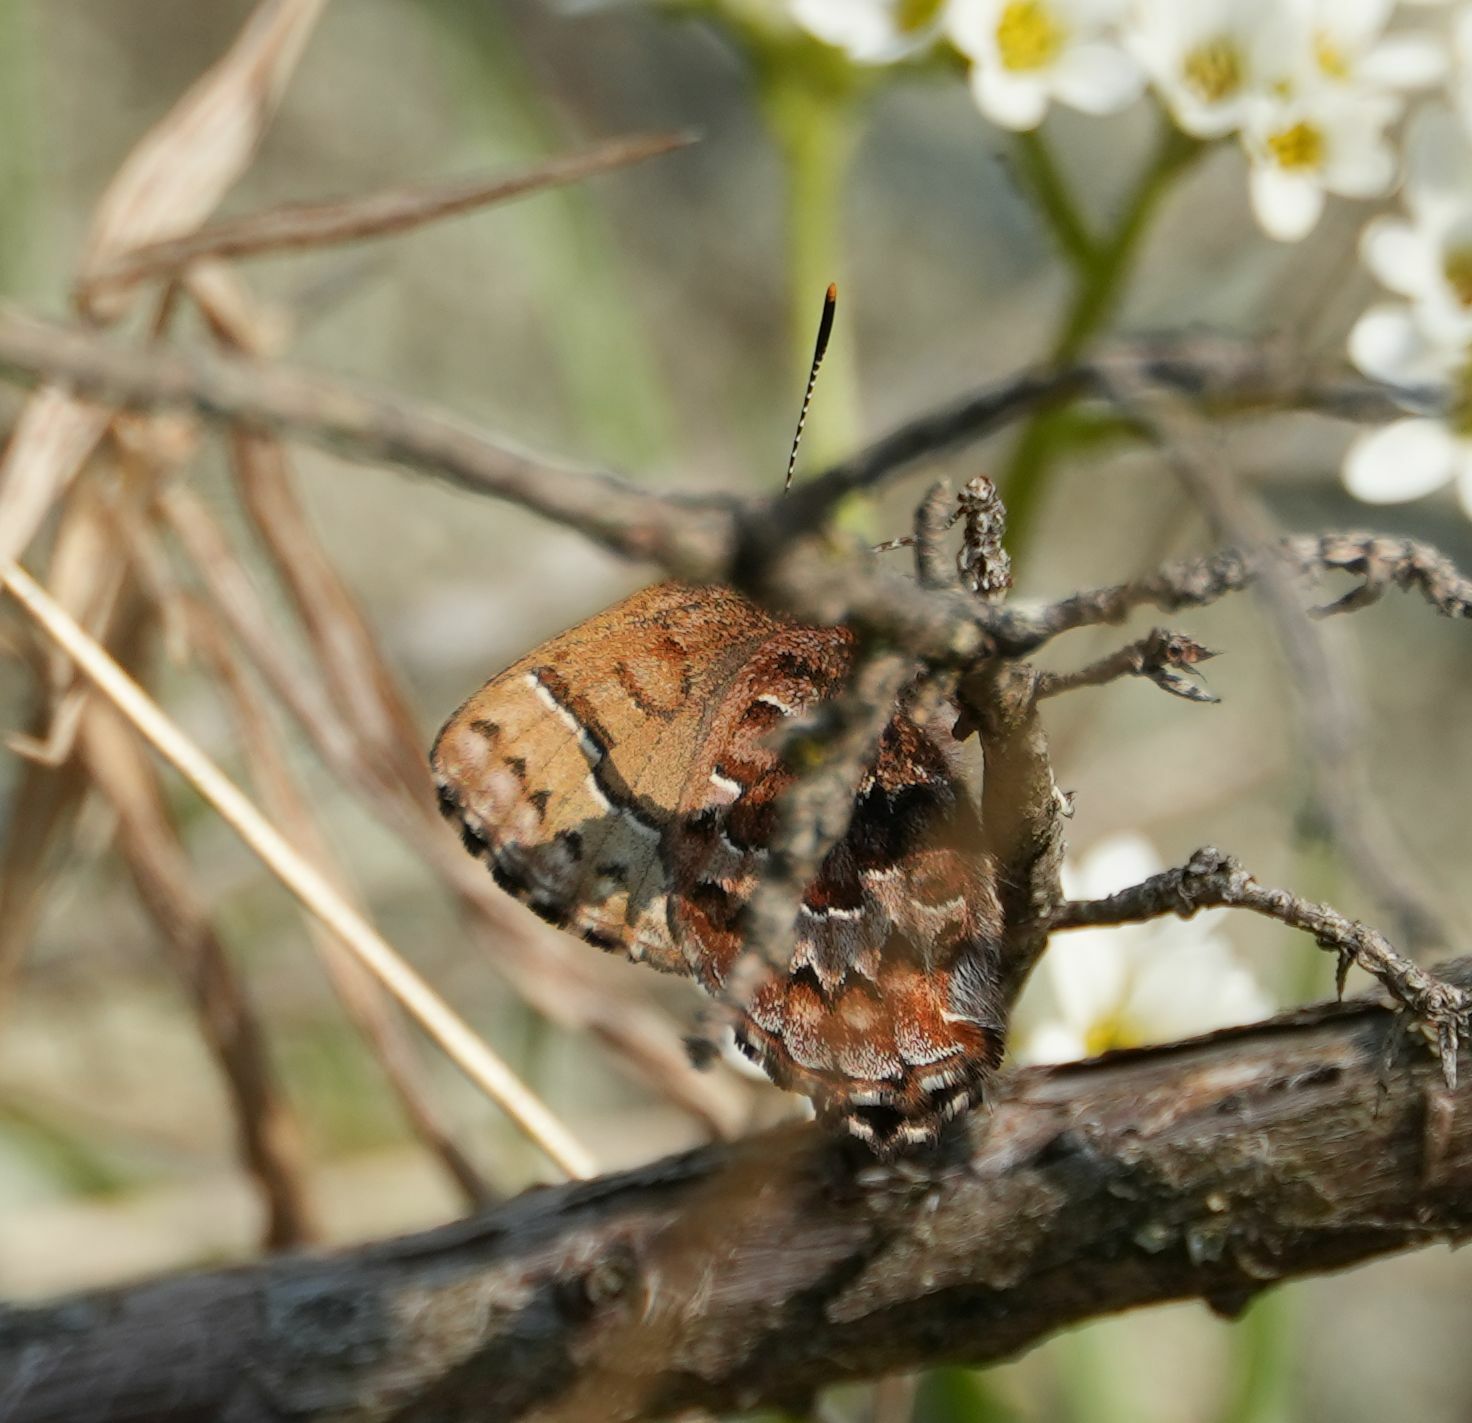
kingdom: Animalia
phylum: Arthropoda
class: Insecta
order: Lepidoptera
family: Lycaenidae
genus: Incisalia
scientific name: Incisalia niphon
